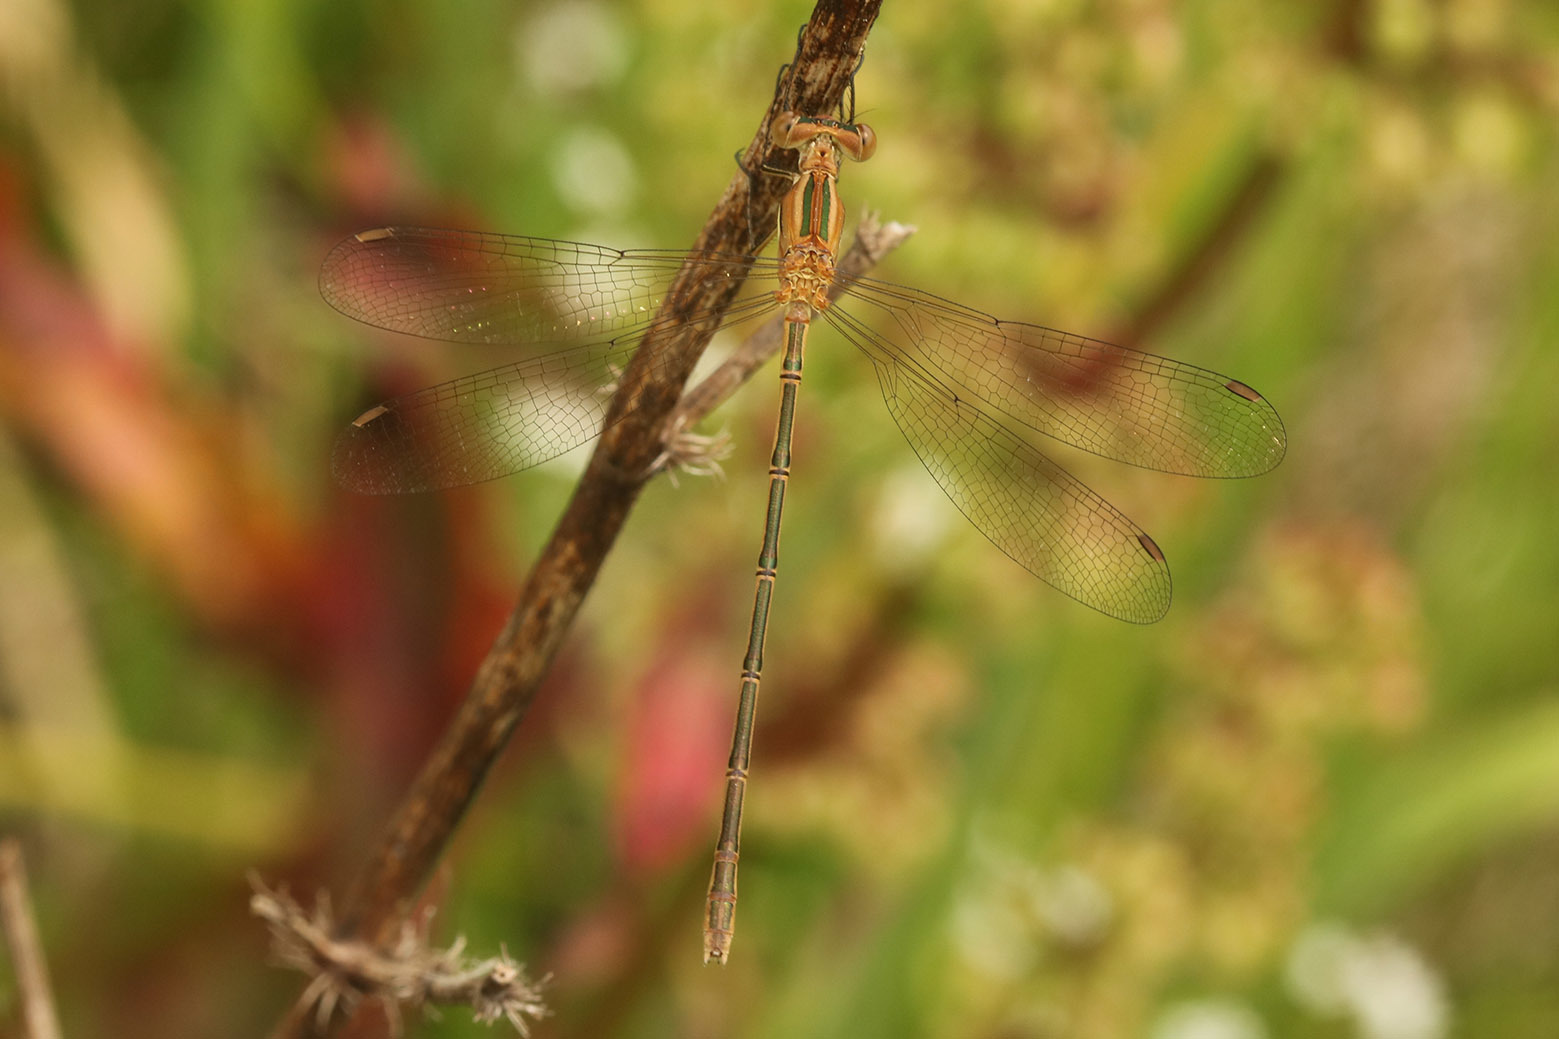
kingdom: Animalia
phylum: Arthropoda
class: Insecta
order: Odonata
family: Lestidae
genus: Lestes
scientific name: Lestes undulatus
